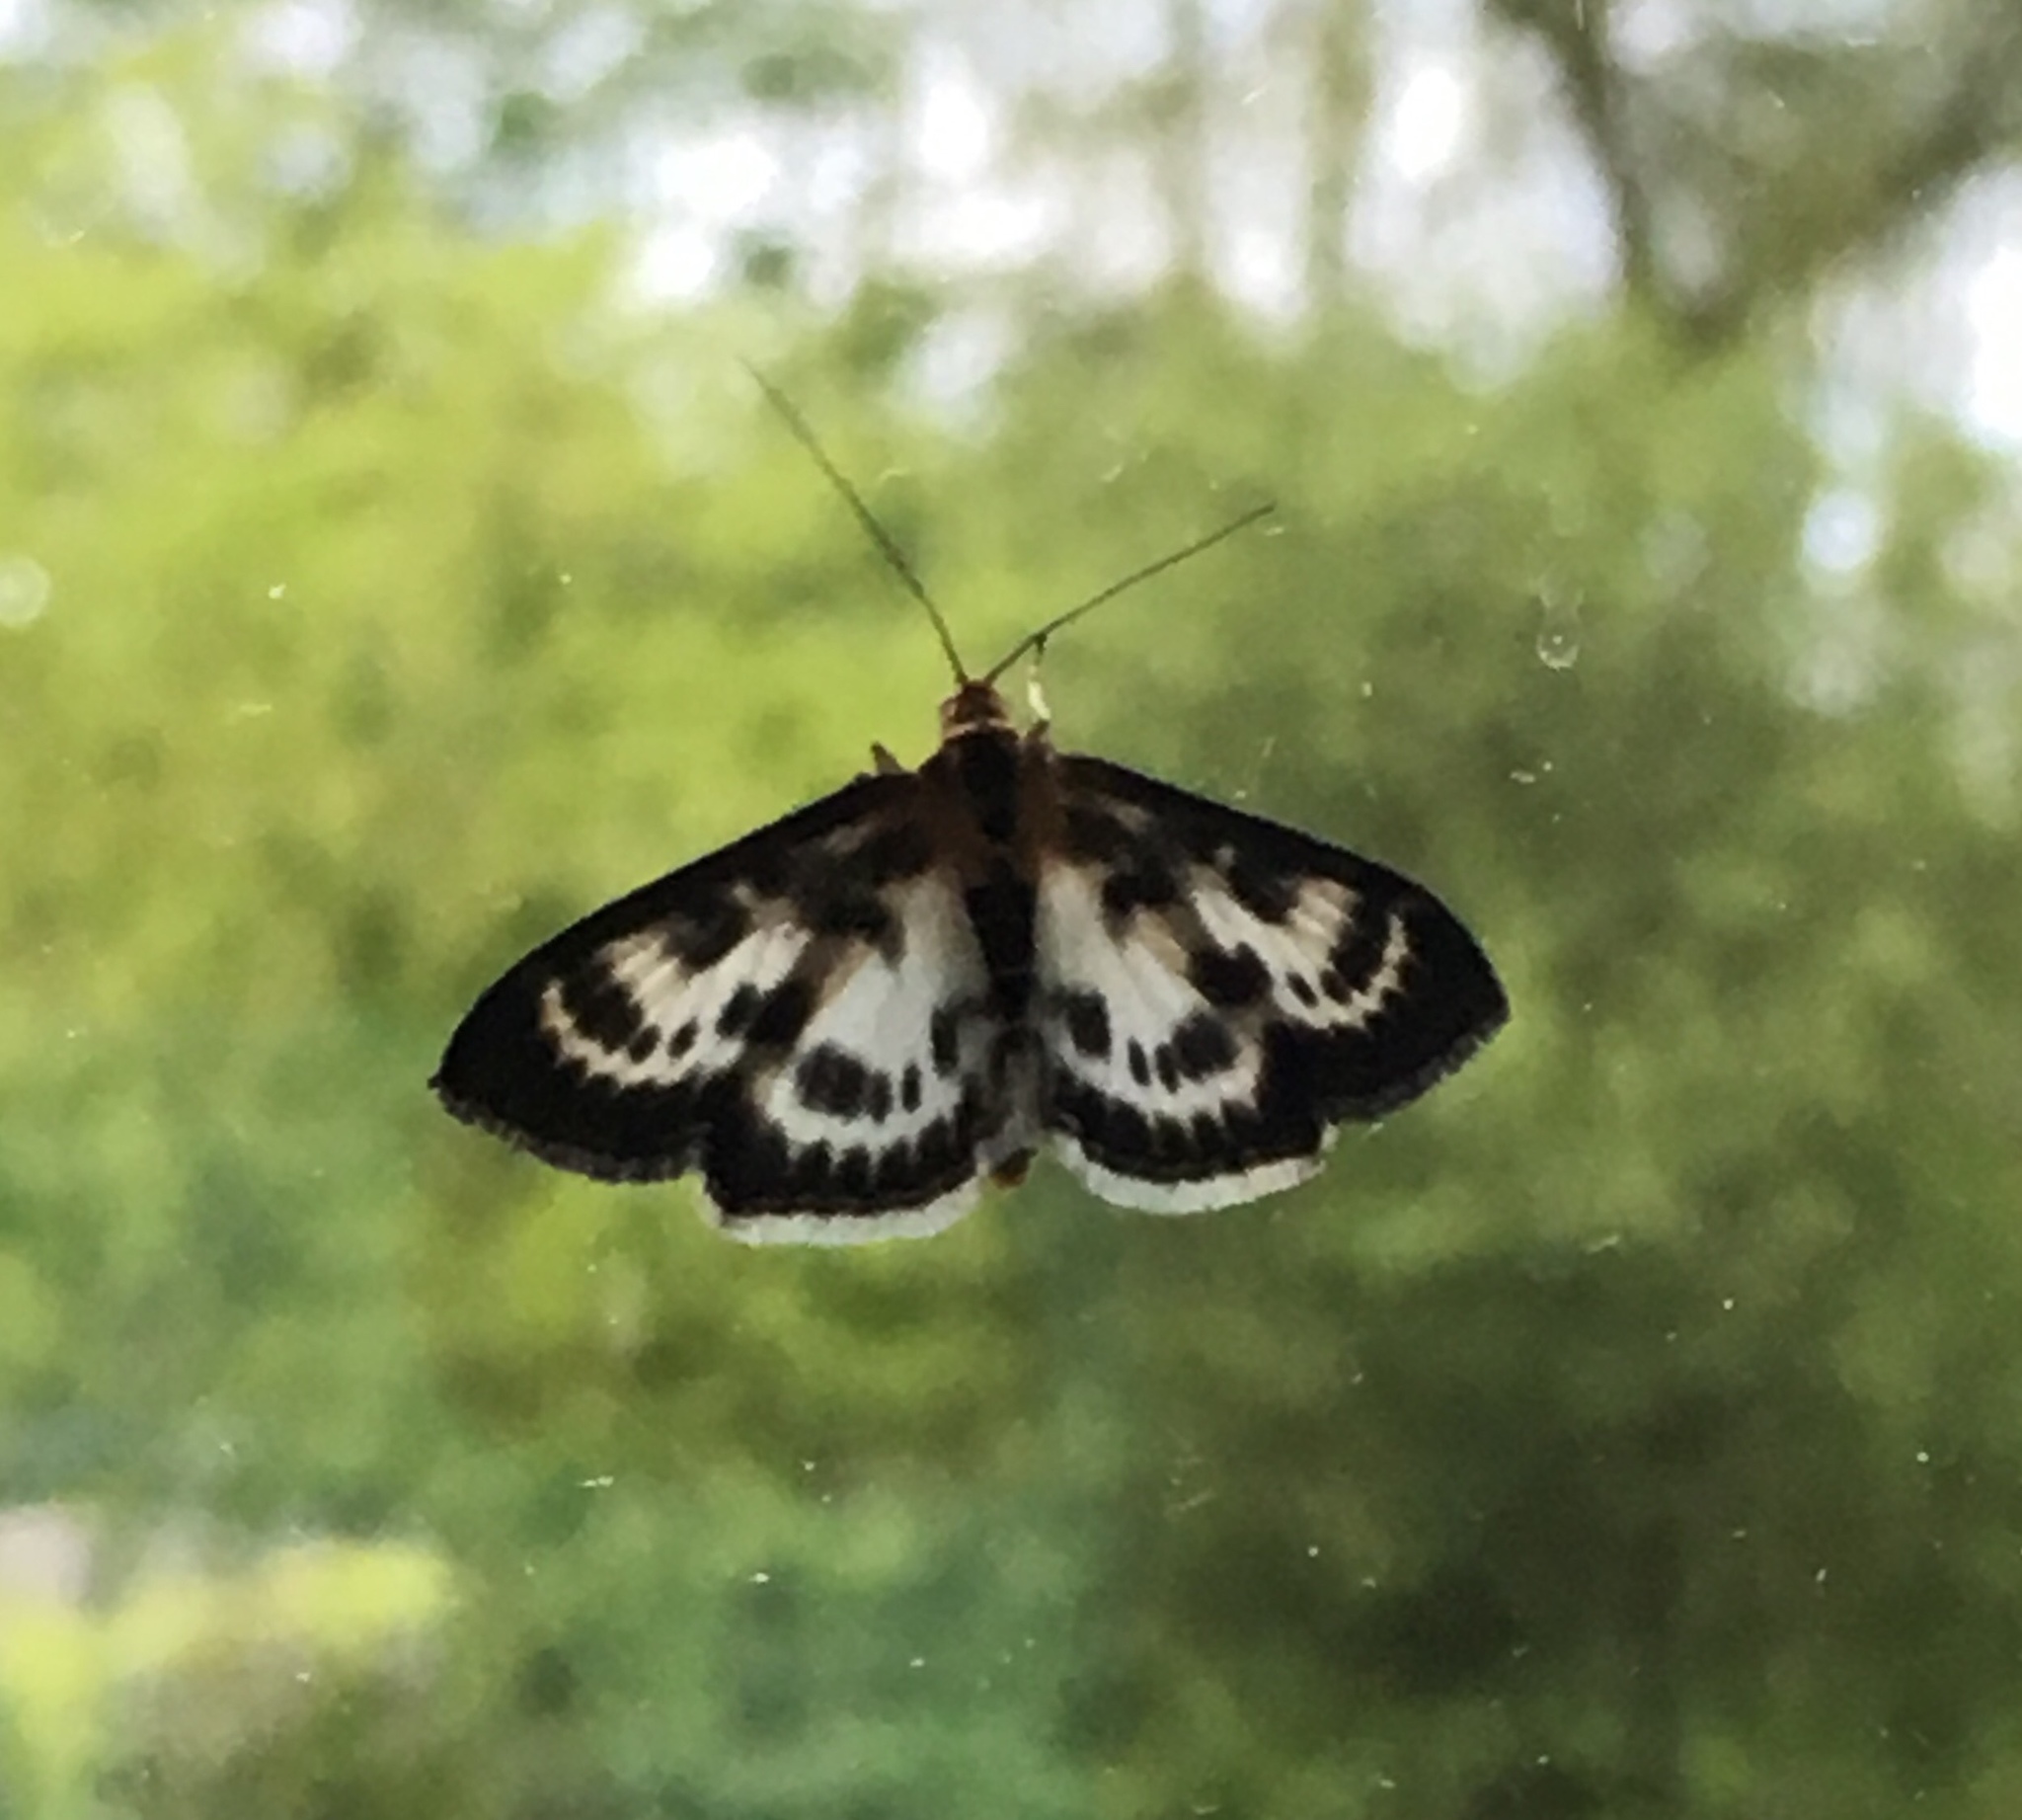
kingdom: Animalia
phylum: Arthropoda
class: Insecta
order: Lepidoptera
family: Crambidae
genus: Anania
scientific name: Anania hortulata
